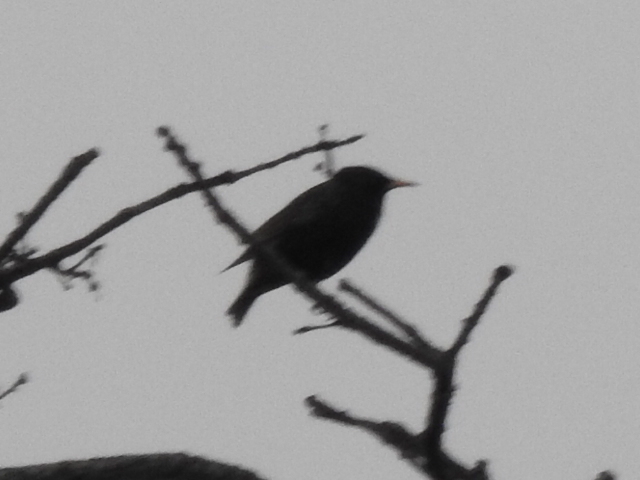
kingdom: Animalia
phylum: Chordata
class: Aves
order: Passeriformes
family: Sturnidae
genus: Sturnus
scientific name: Sturnus vulgaris
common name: Common starling
